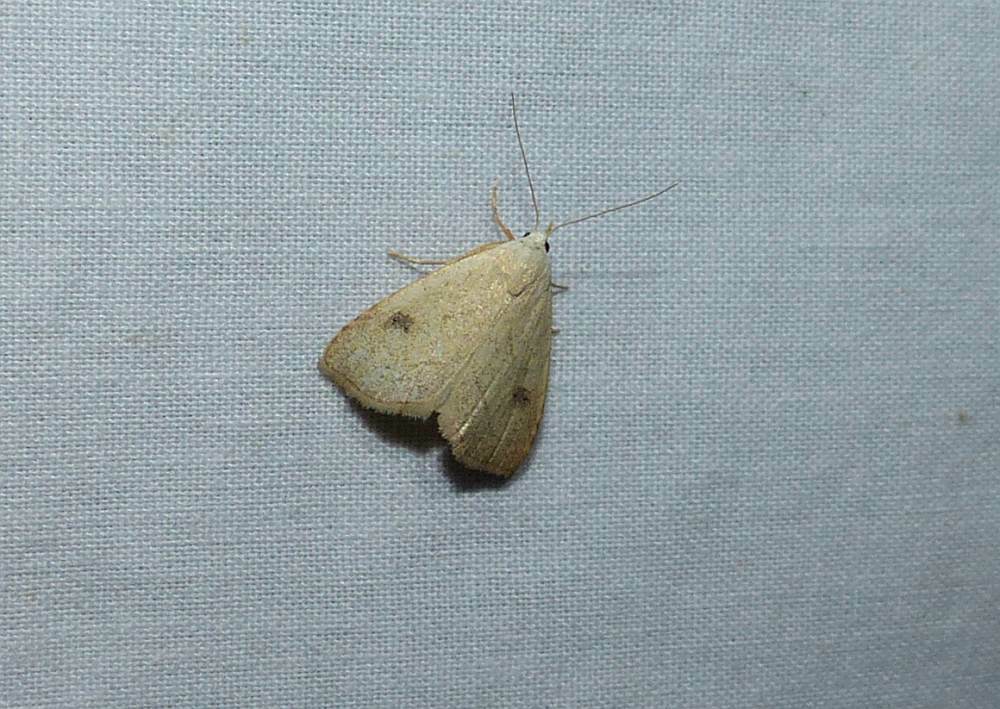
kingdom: Animalia
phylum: Arthropoda
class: Insecta
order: Lepidoptera
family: Erebidae
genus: Rivula
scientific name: Rivula propinqualis
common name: Spotted grass moth
